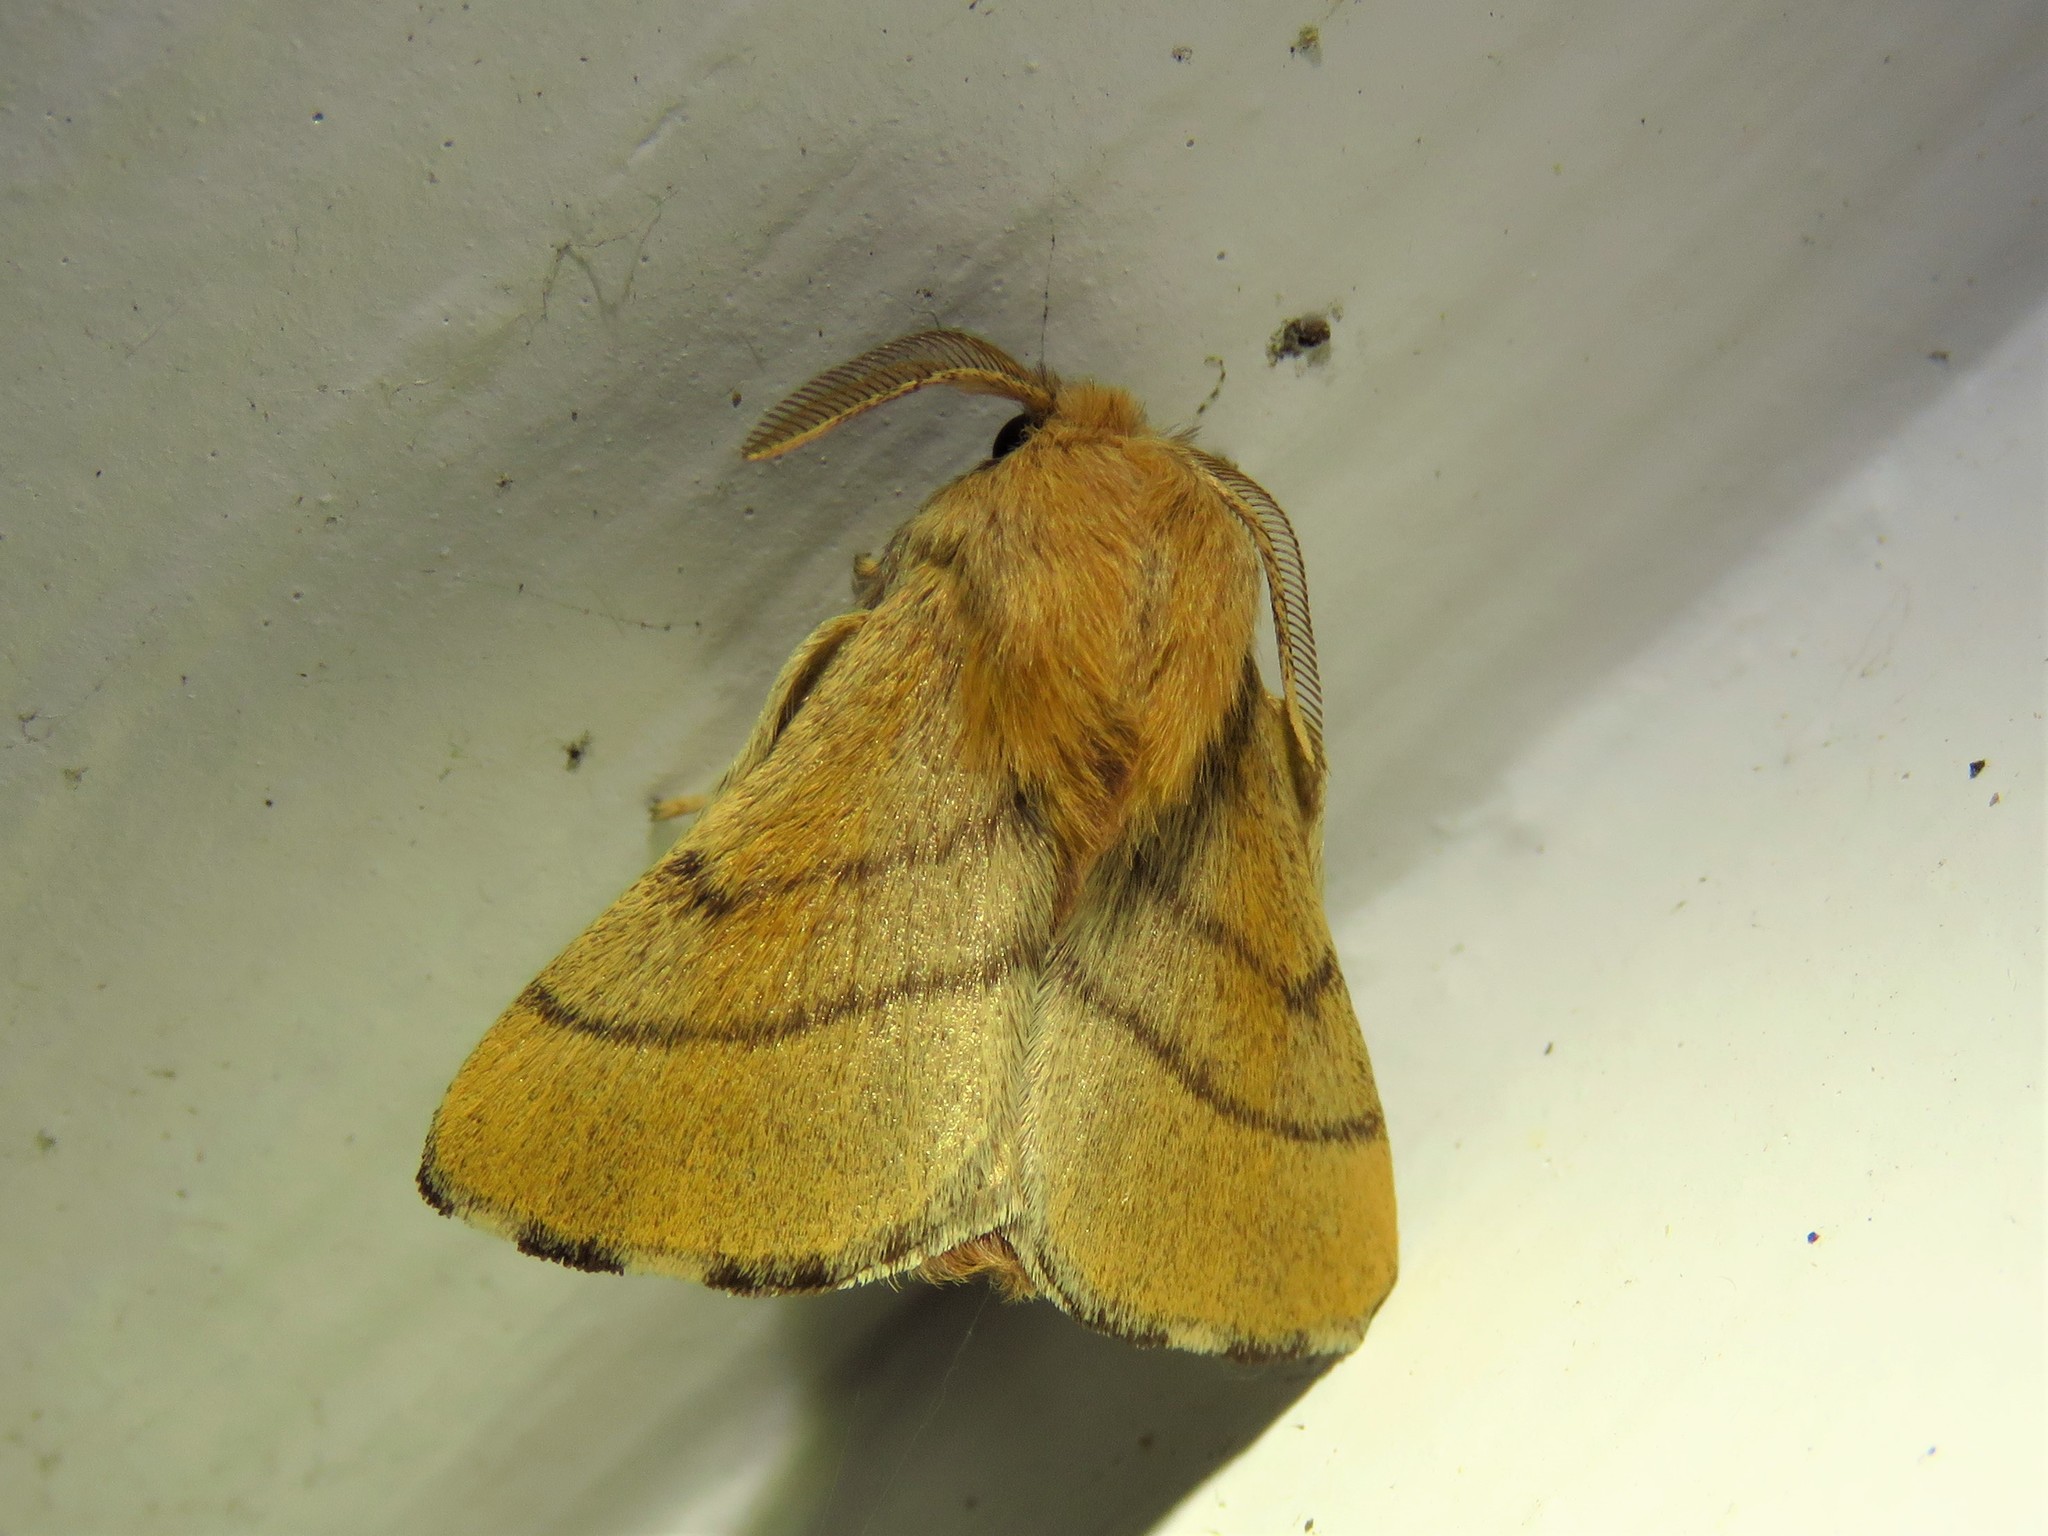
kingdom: Animalia
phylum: Arthropoda
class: Insecta
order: Lepidoptera
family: Lasiocampidae
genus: Malacosoma
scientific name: Malacosoma disstria
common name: Forest tent caterpillar
